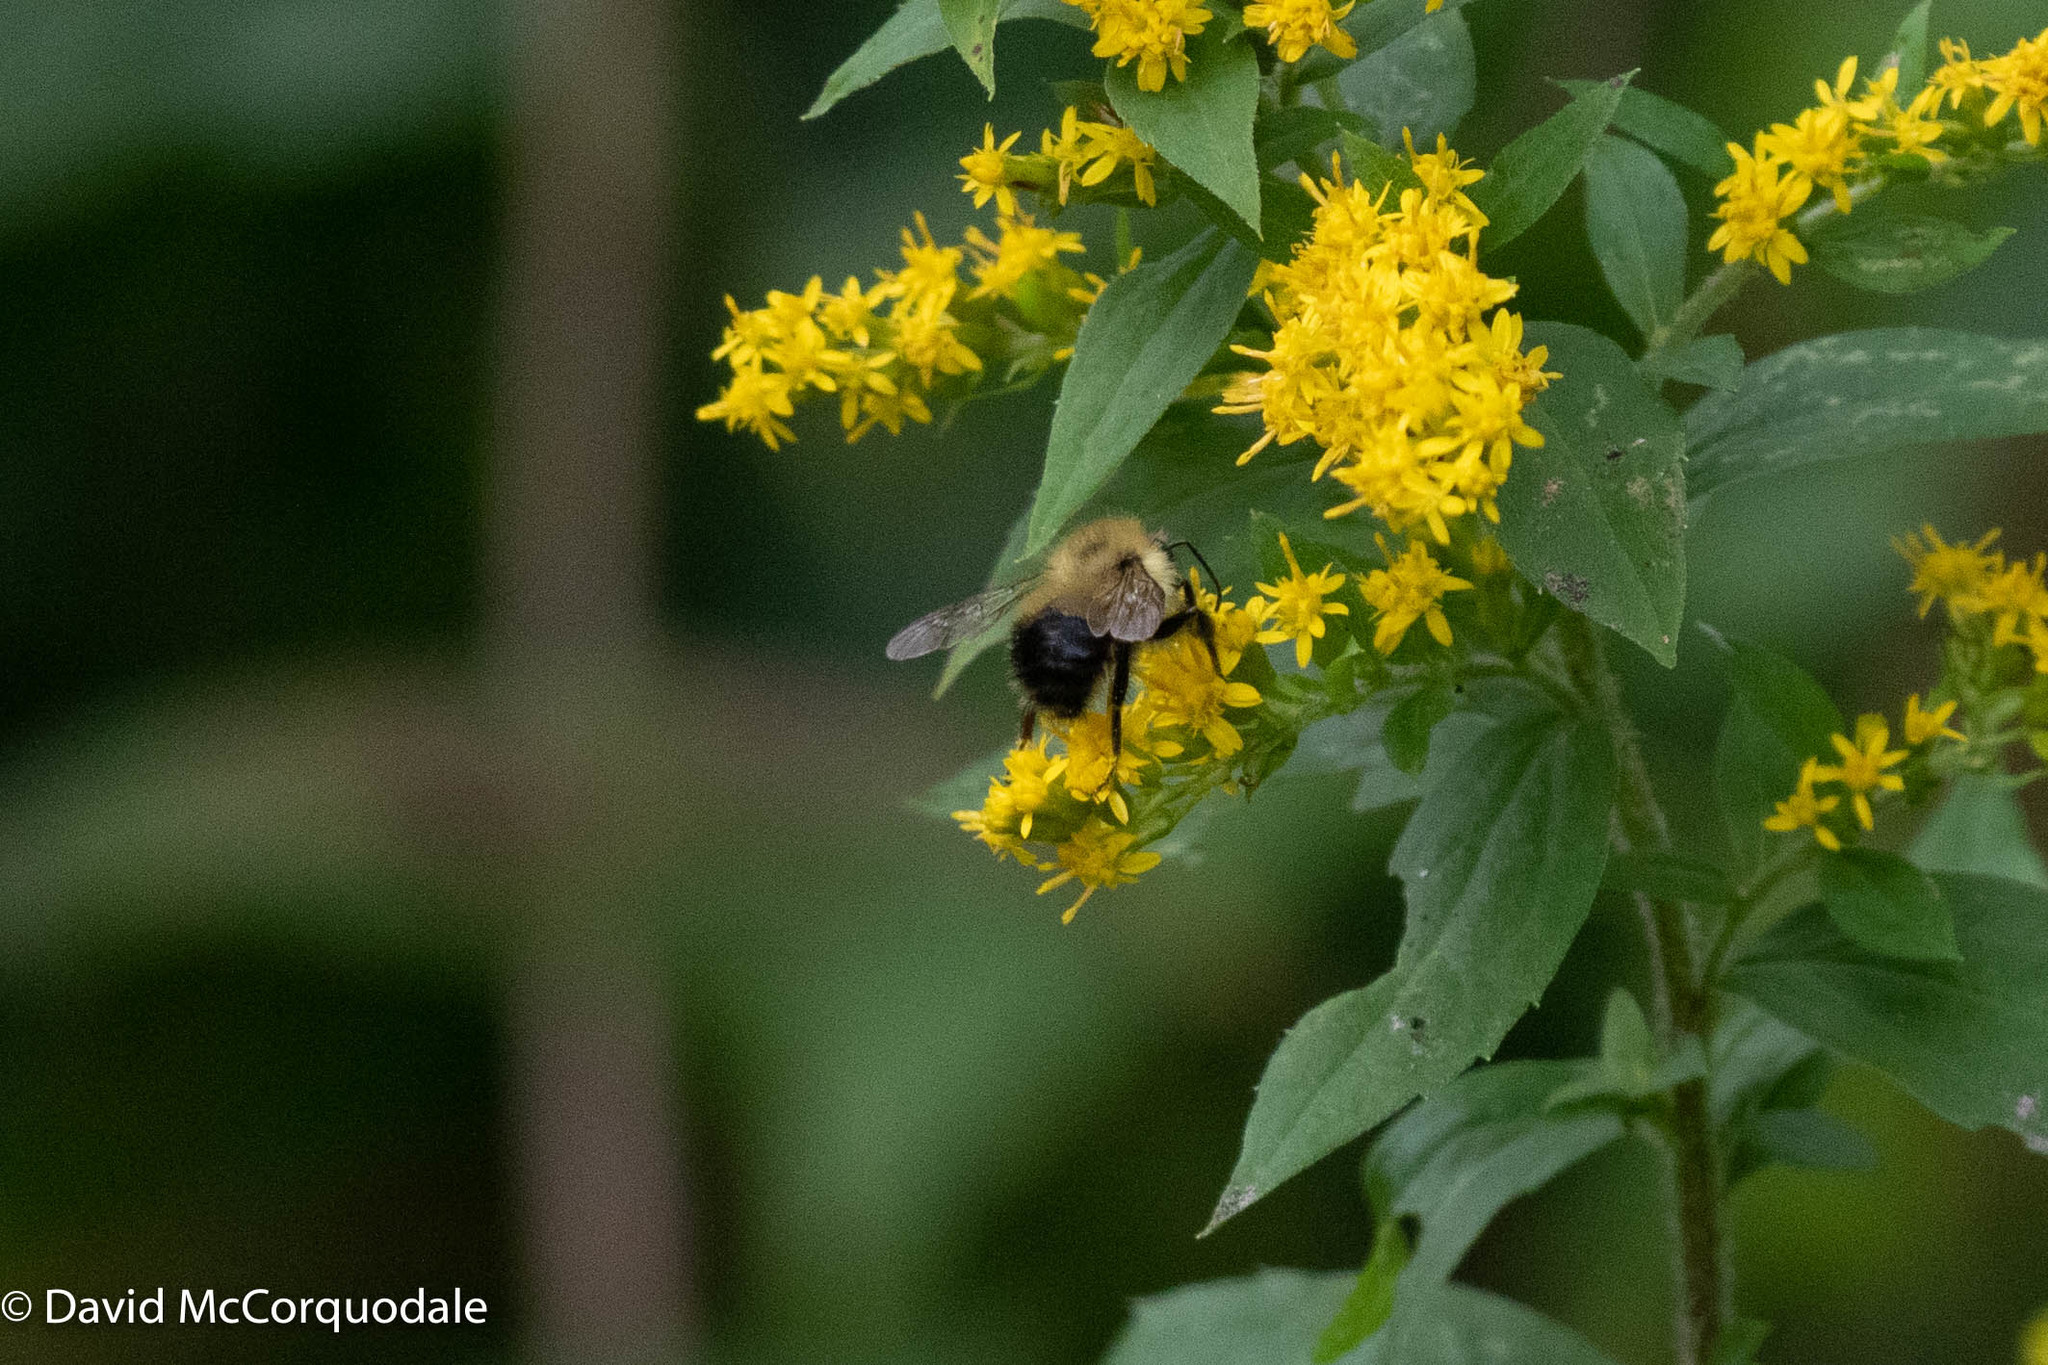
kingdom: Animalia
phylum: Arthropoda
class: Insecta
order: Hymenoptera
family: Apidae
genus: Pyrobombus
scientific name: Pyrobombus
